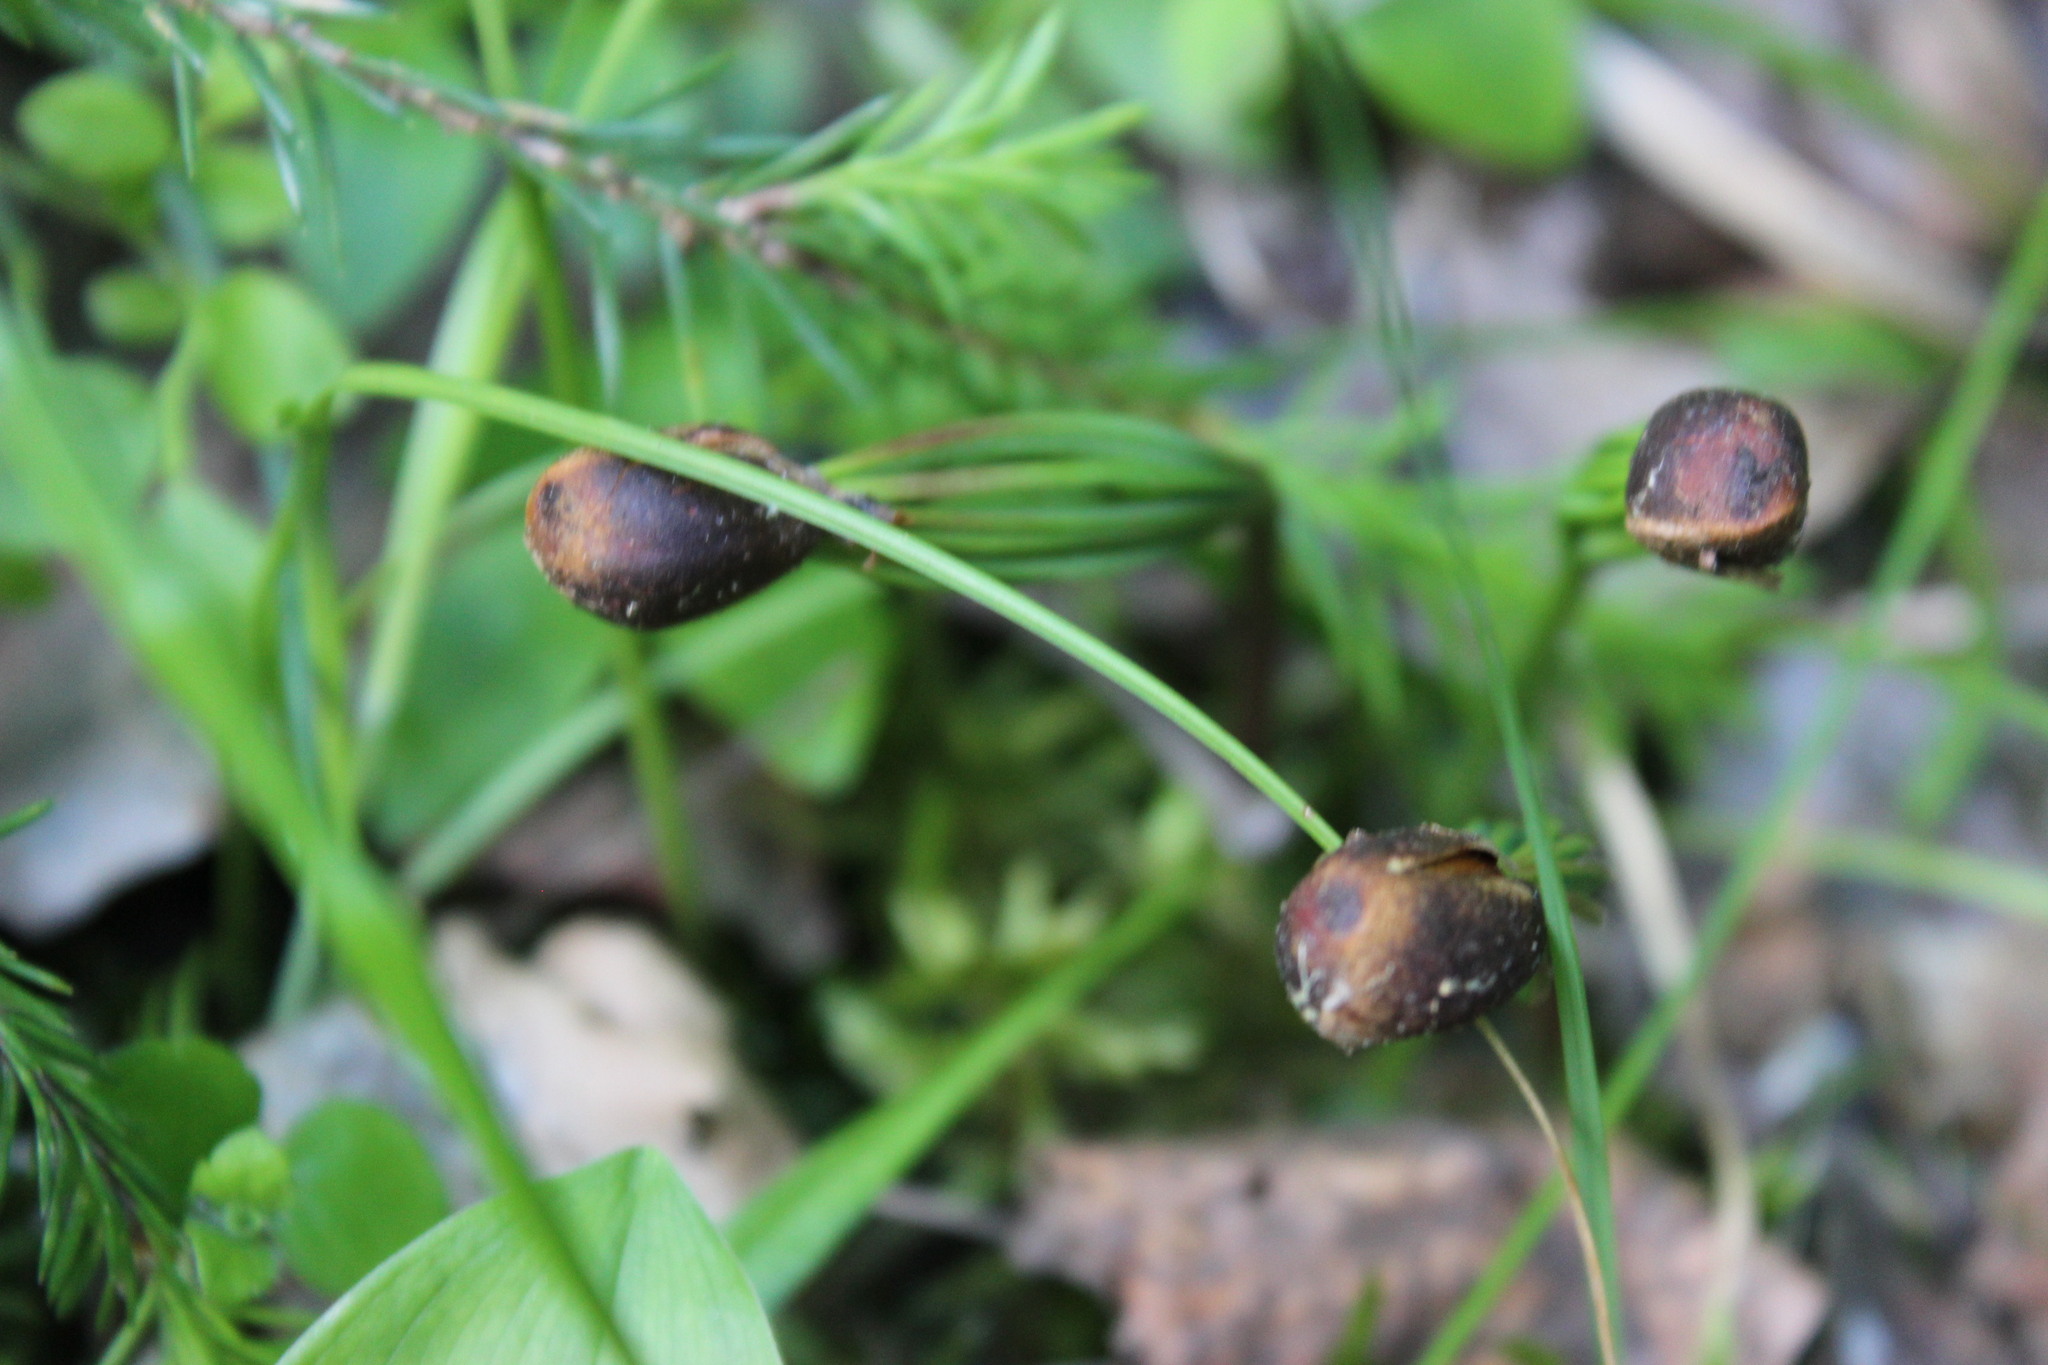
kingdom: Plantae
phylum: Tracheophyta
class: Pinopsida
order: Pinales
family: Pinaceae
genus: Pinus
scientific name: Pinus sibirica
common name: Siberian pine
